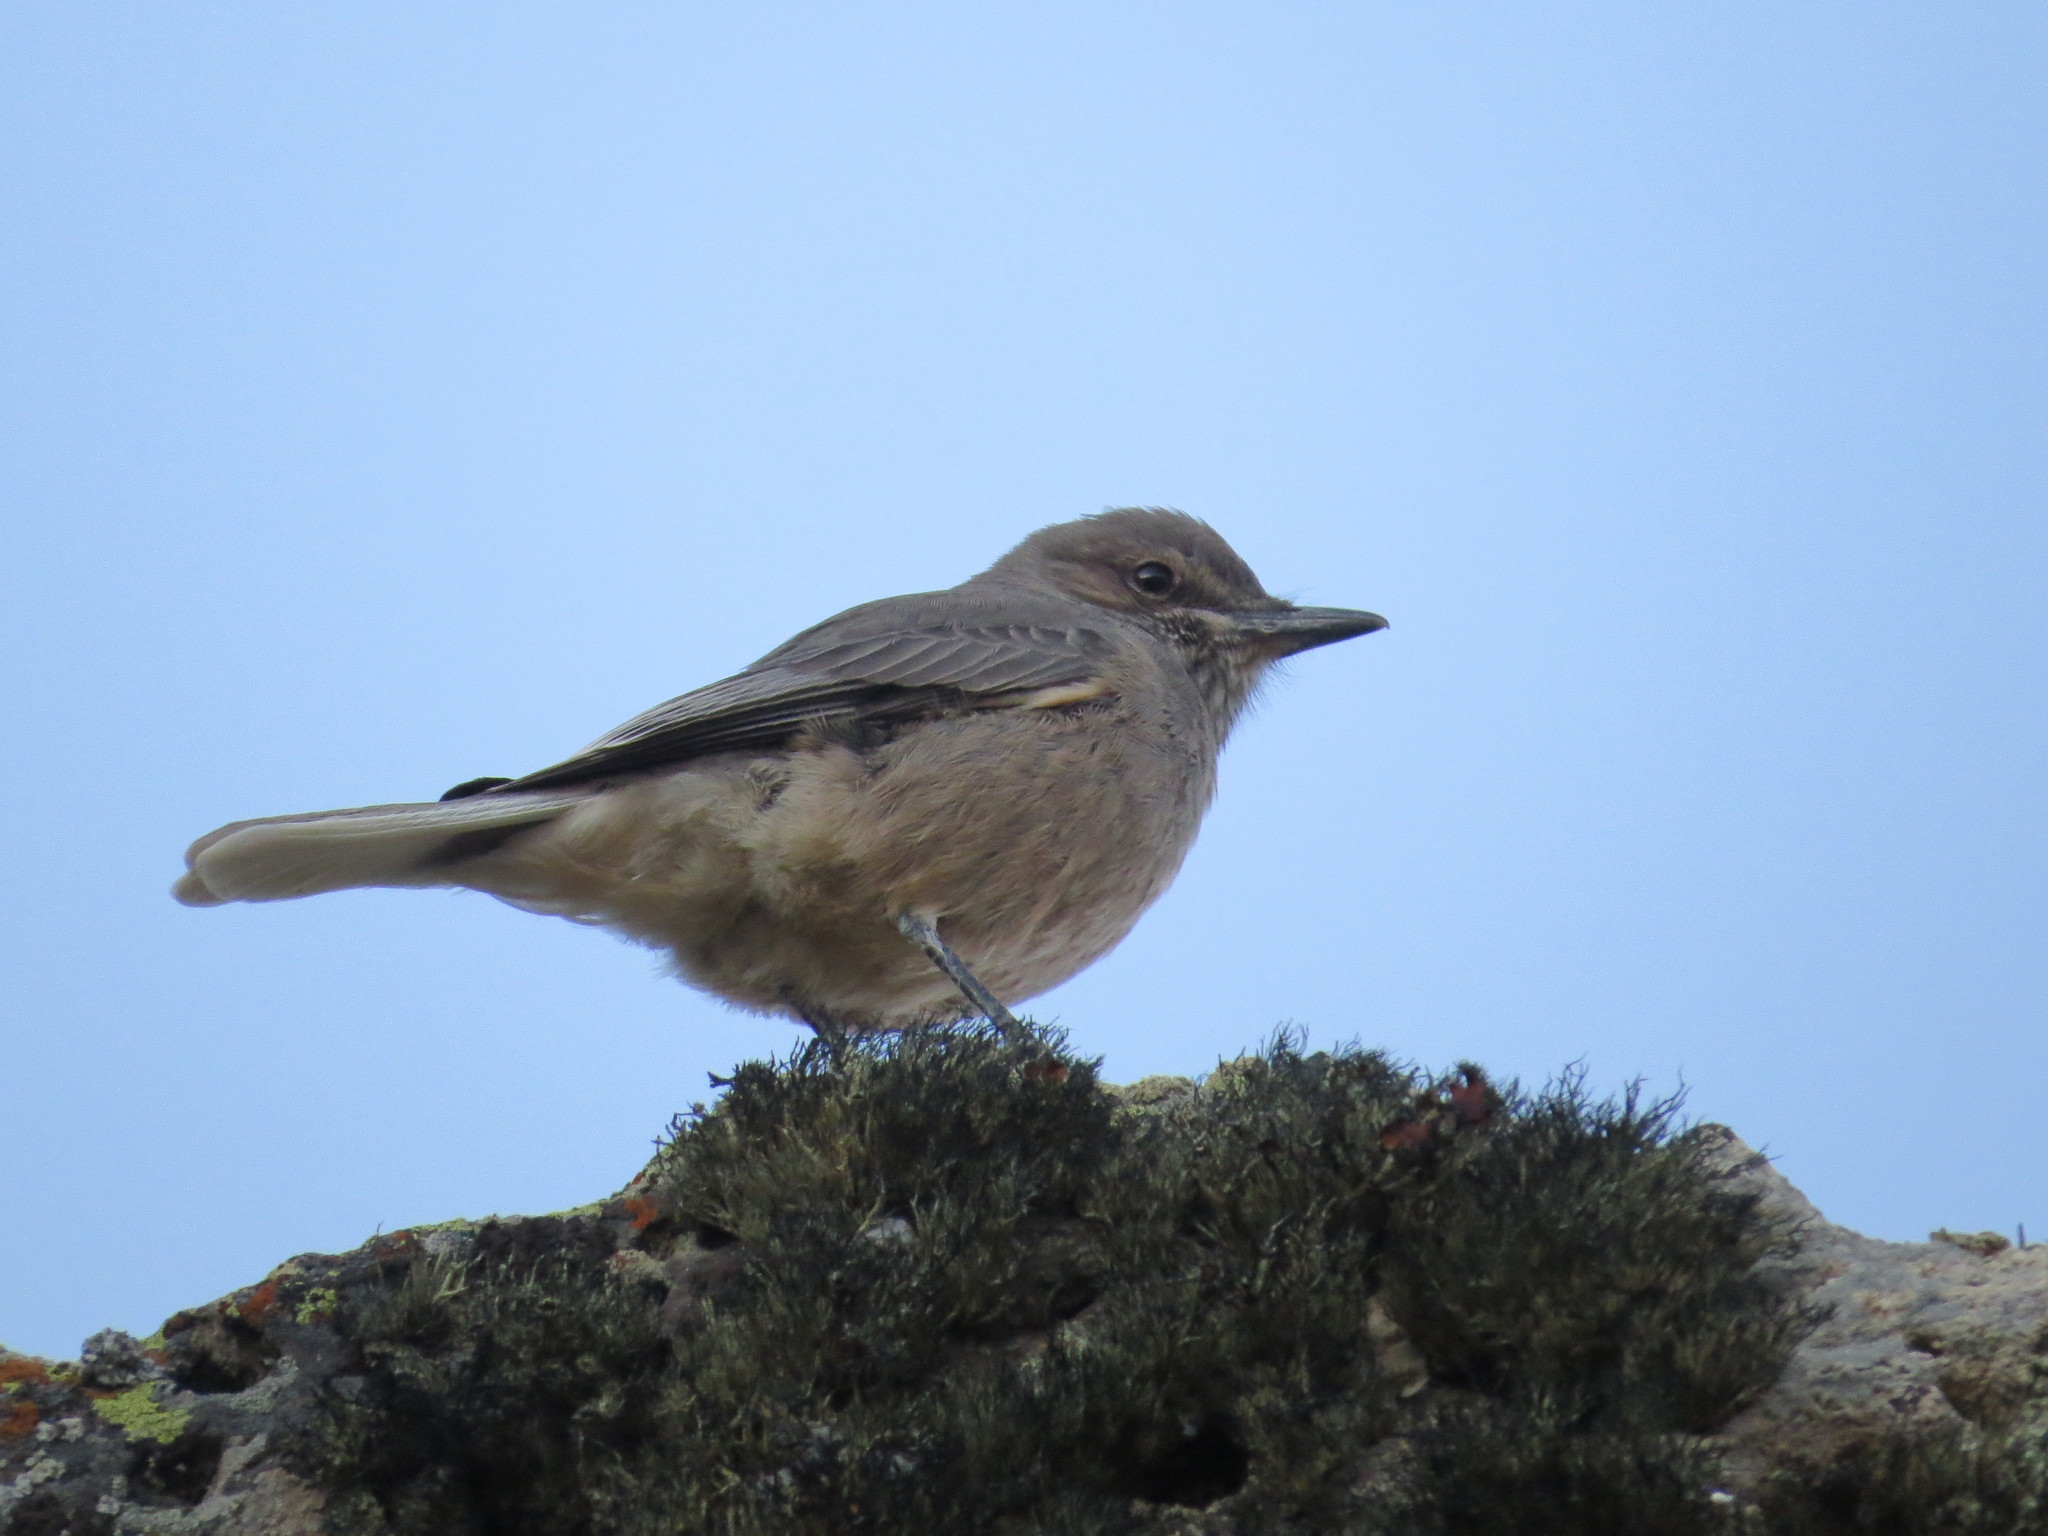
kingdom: Animalia
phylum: Chordata
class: Aves
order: Passeriformes
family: Tyrannidae
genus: Agriornis
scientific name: Agriornis montanus
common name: Black-billed shrike-tyrant
